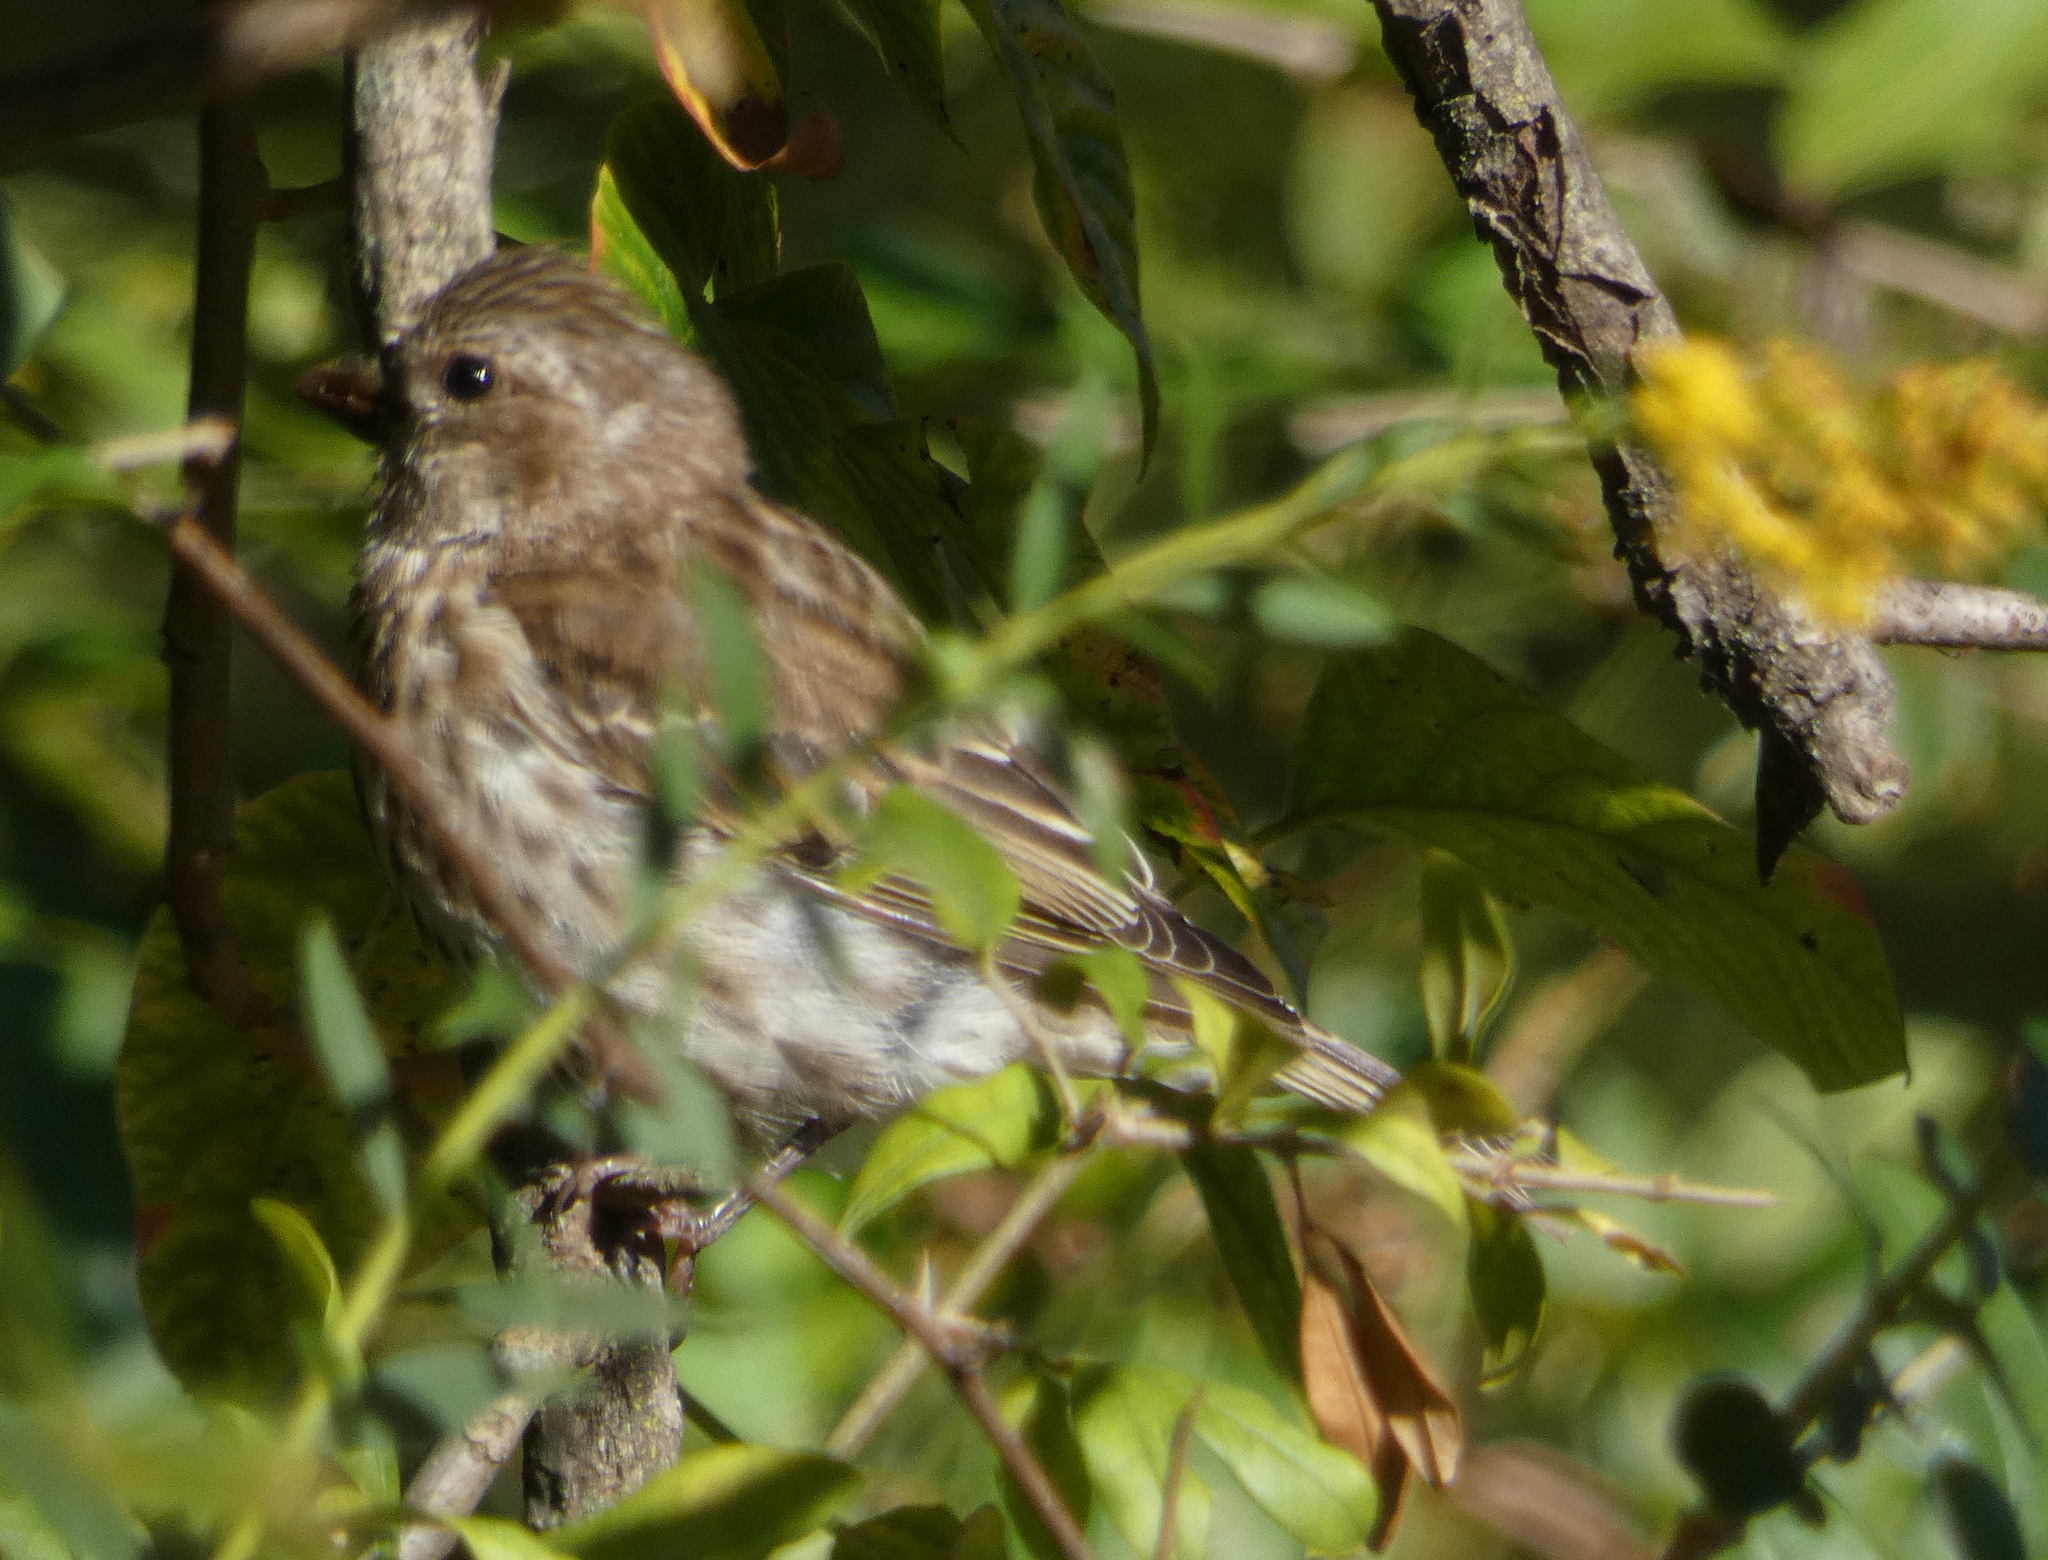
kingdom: Animalia
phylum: Chordata
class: Aves
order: Passeriformes
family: Fringillidae
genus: Haemorhous
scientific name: Haemorhous purpureus
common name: Purple finch
